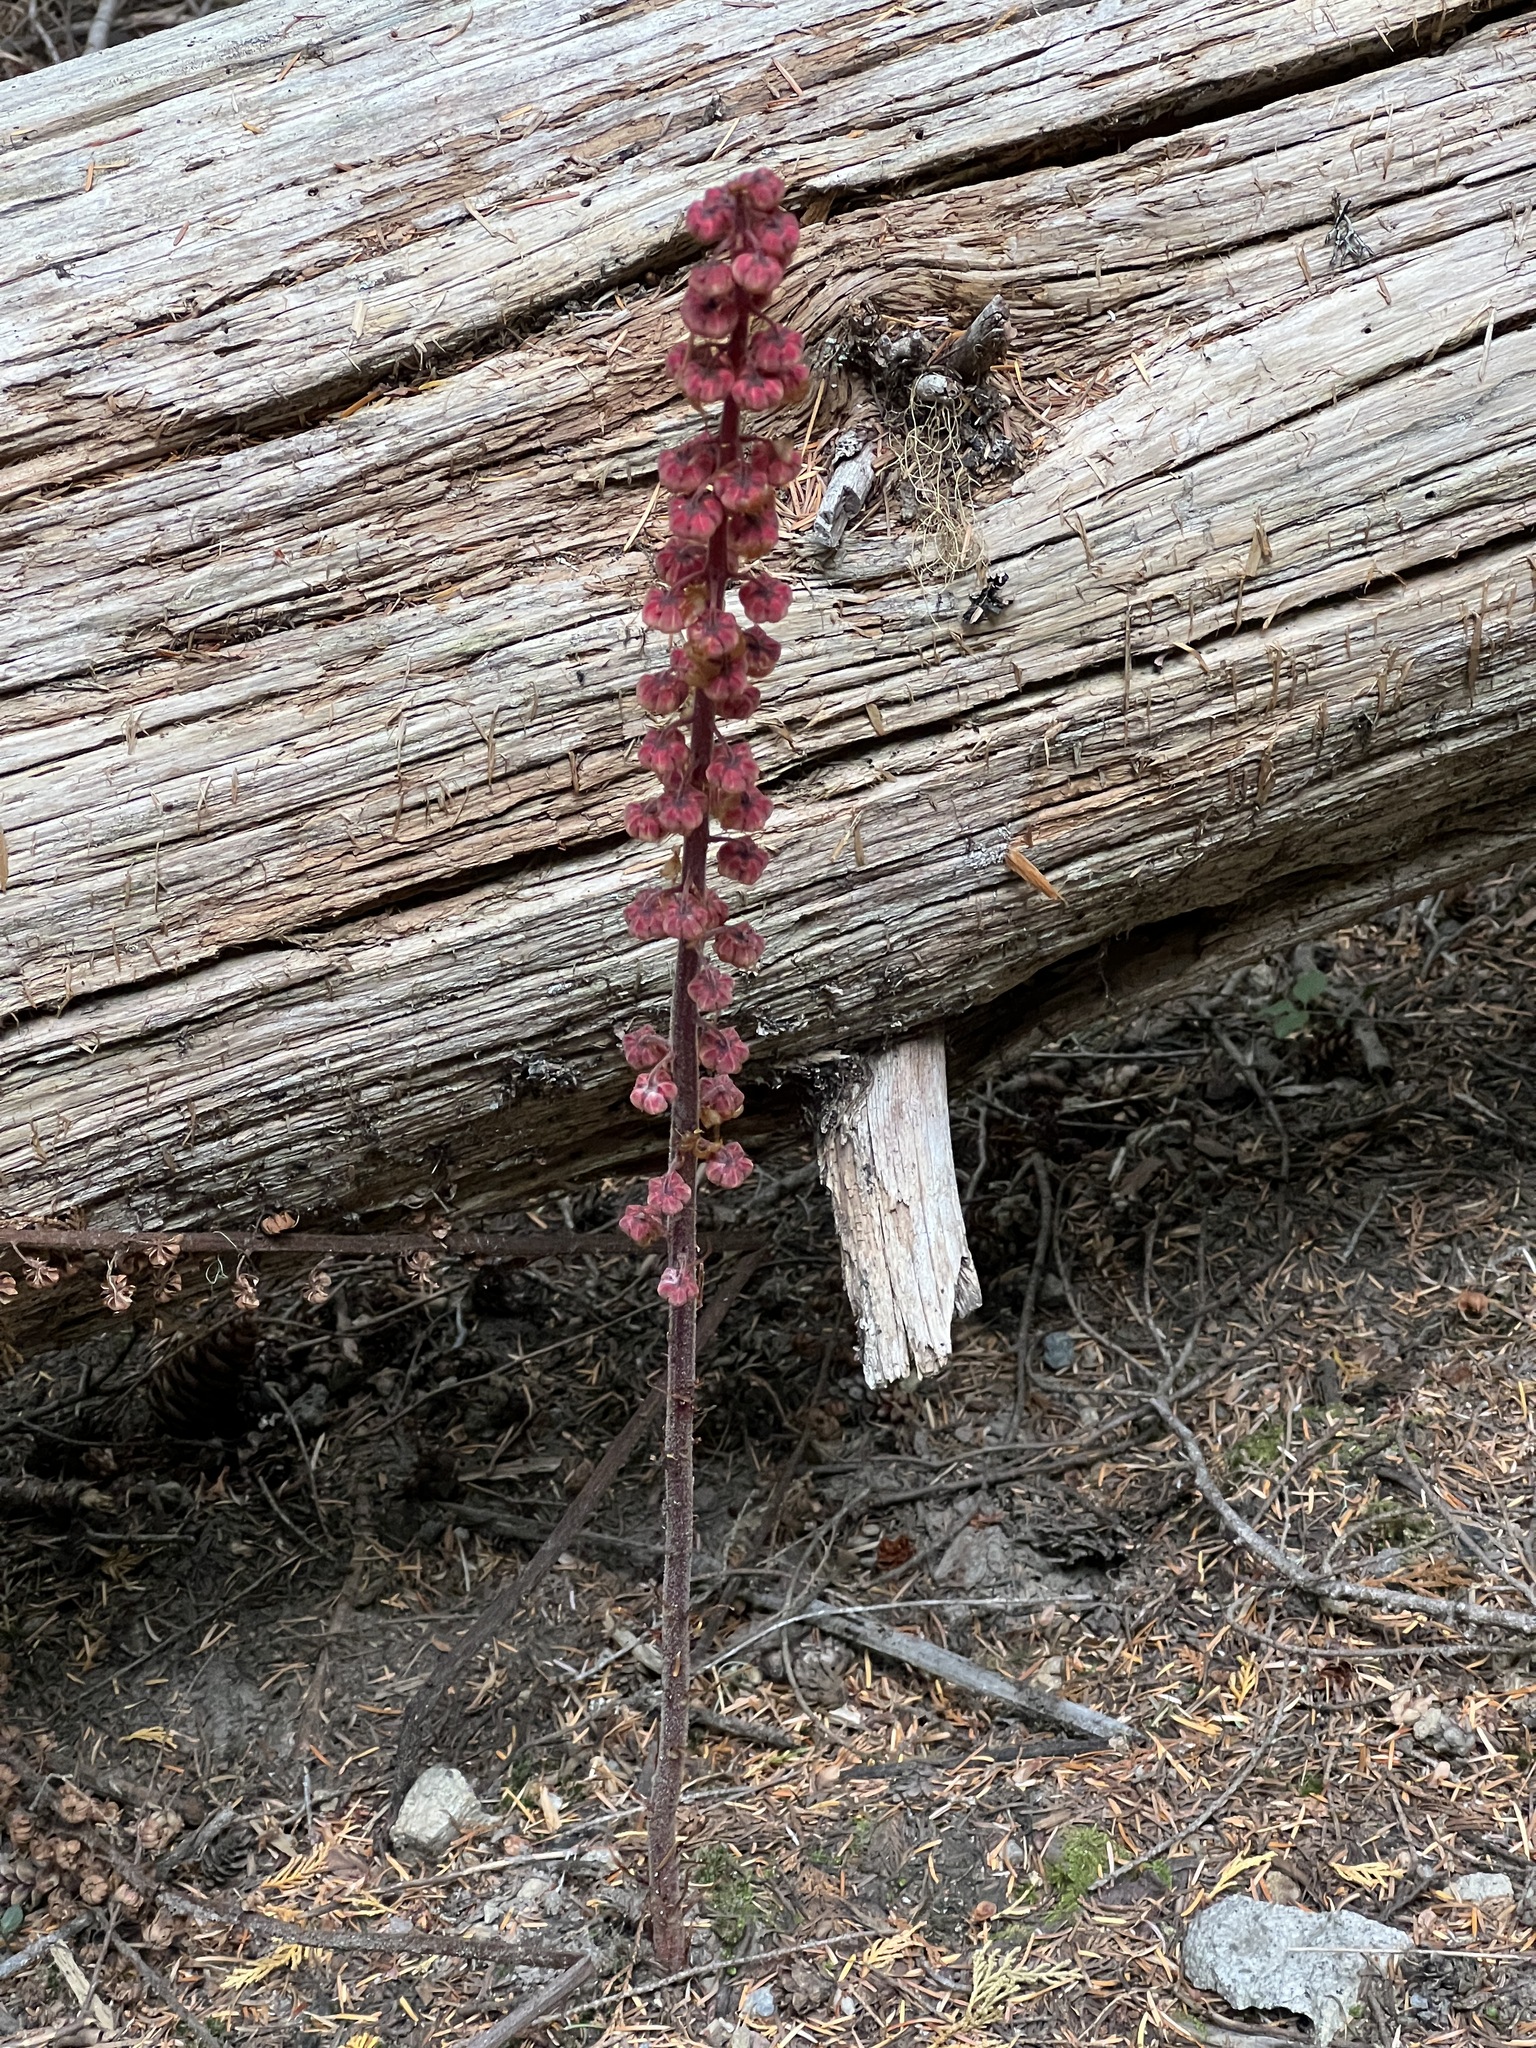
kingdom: Plantae
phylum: Tracheophyta
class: Magnoliopsida
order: Ericales
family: Ericaceae
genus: Pterospora
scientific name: Pterospora andromedea
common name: Giant bird's-nest
